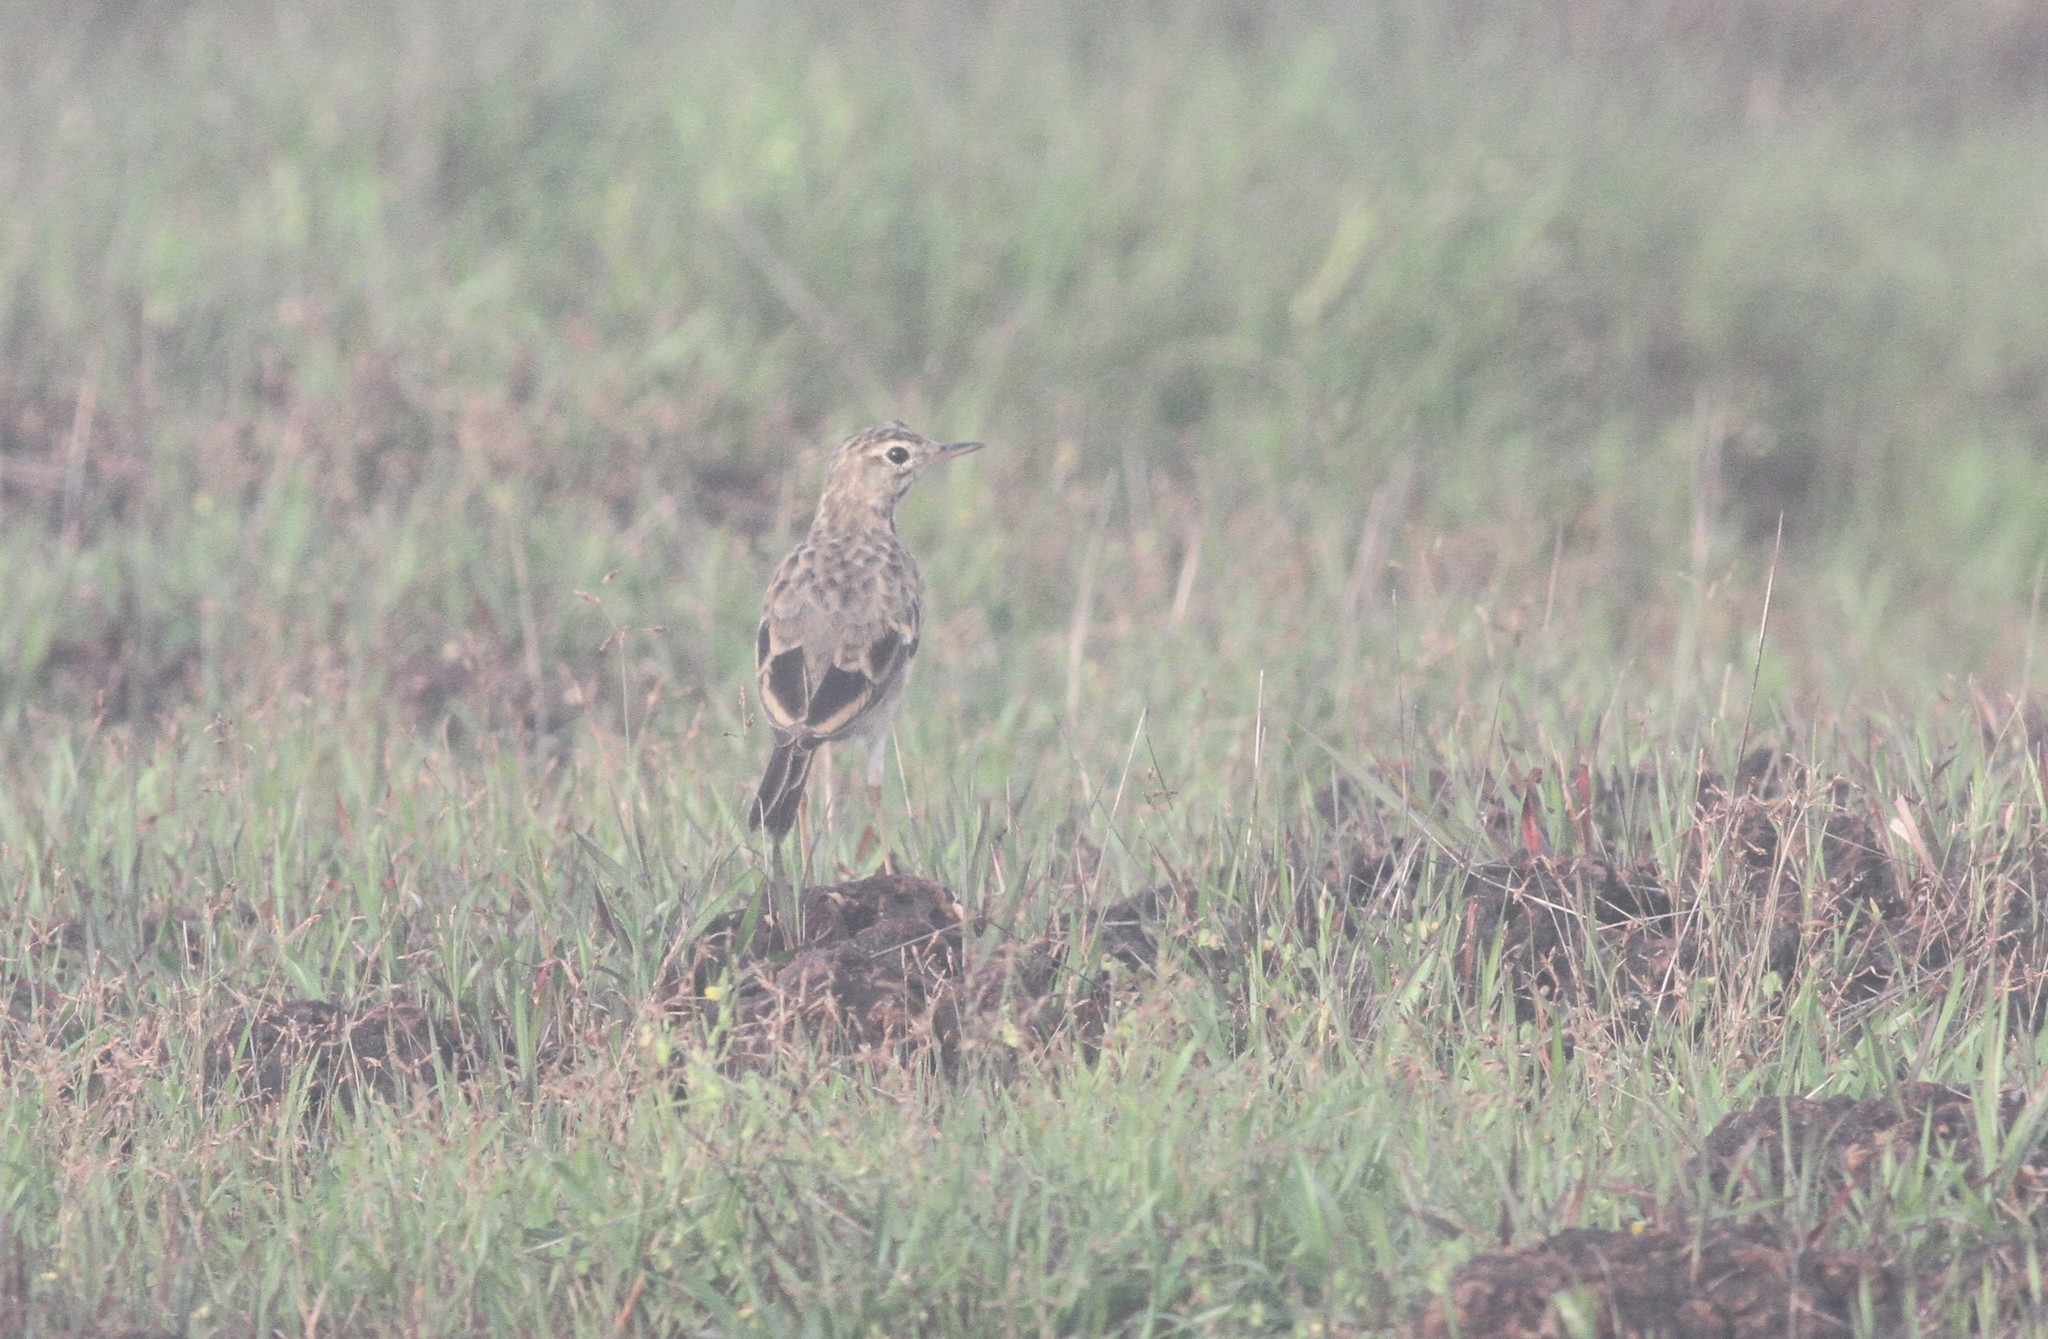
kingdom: Animalia
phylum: Chordata
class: Aves
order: Passeriformes
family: Motacillidae
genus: Anthus
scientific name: Anthus rufulus
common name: Paddyfield pipit
